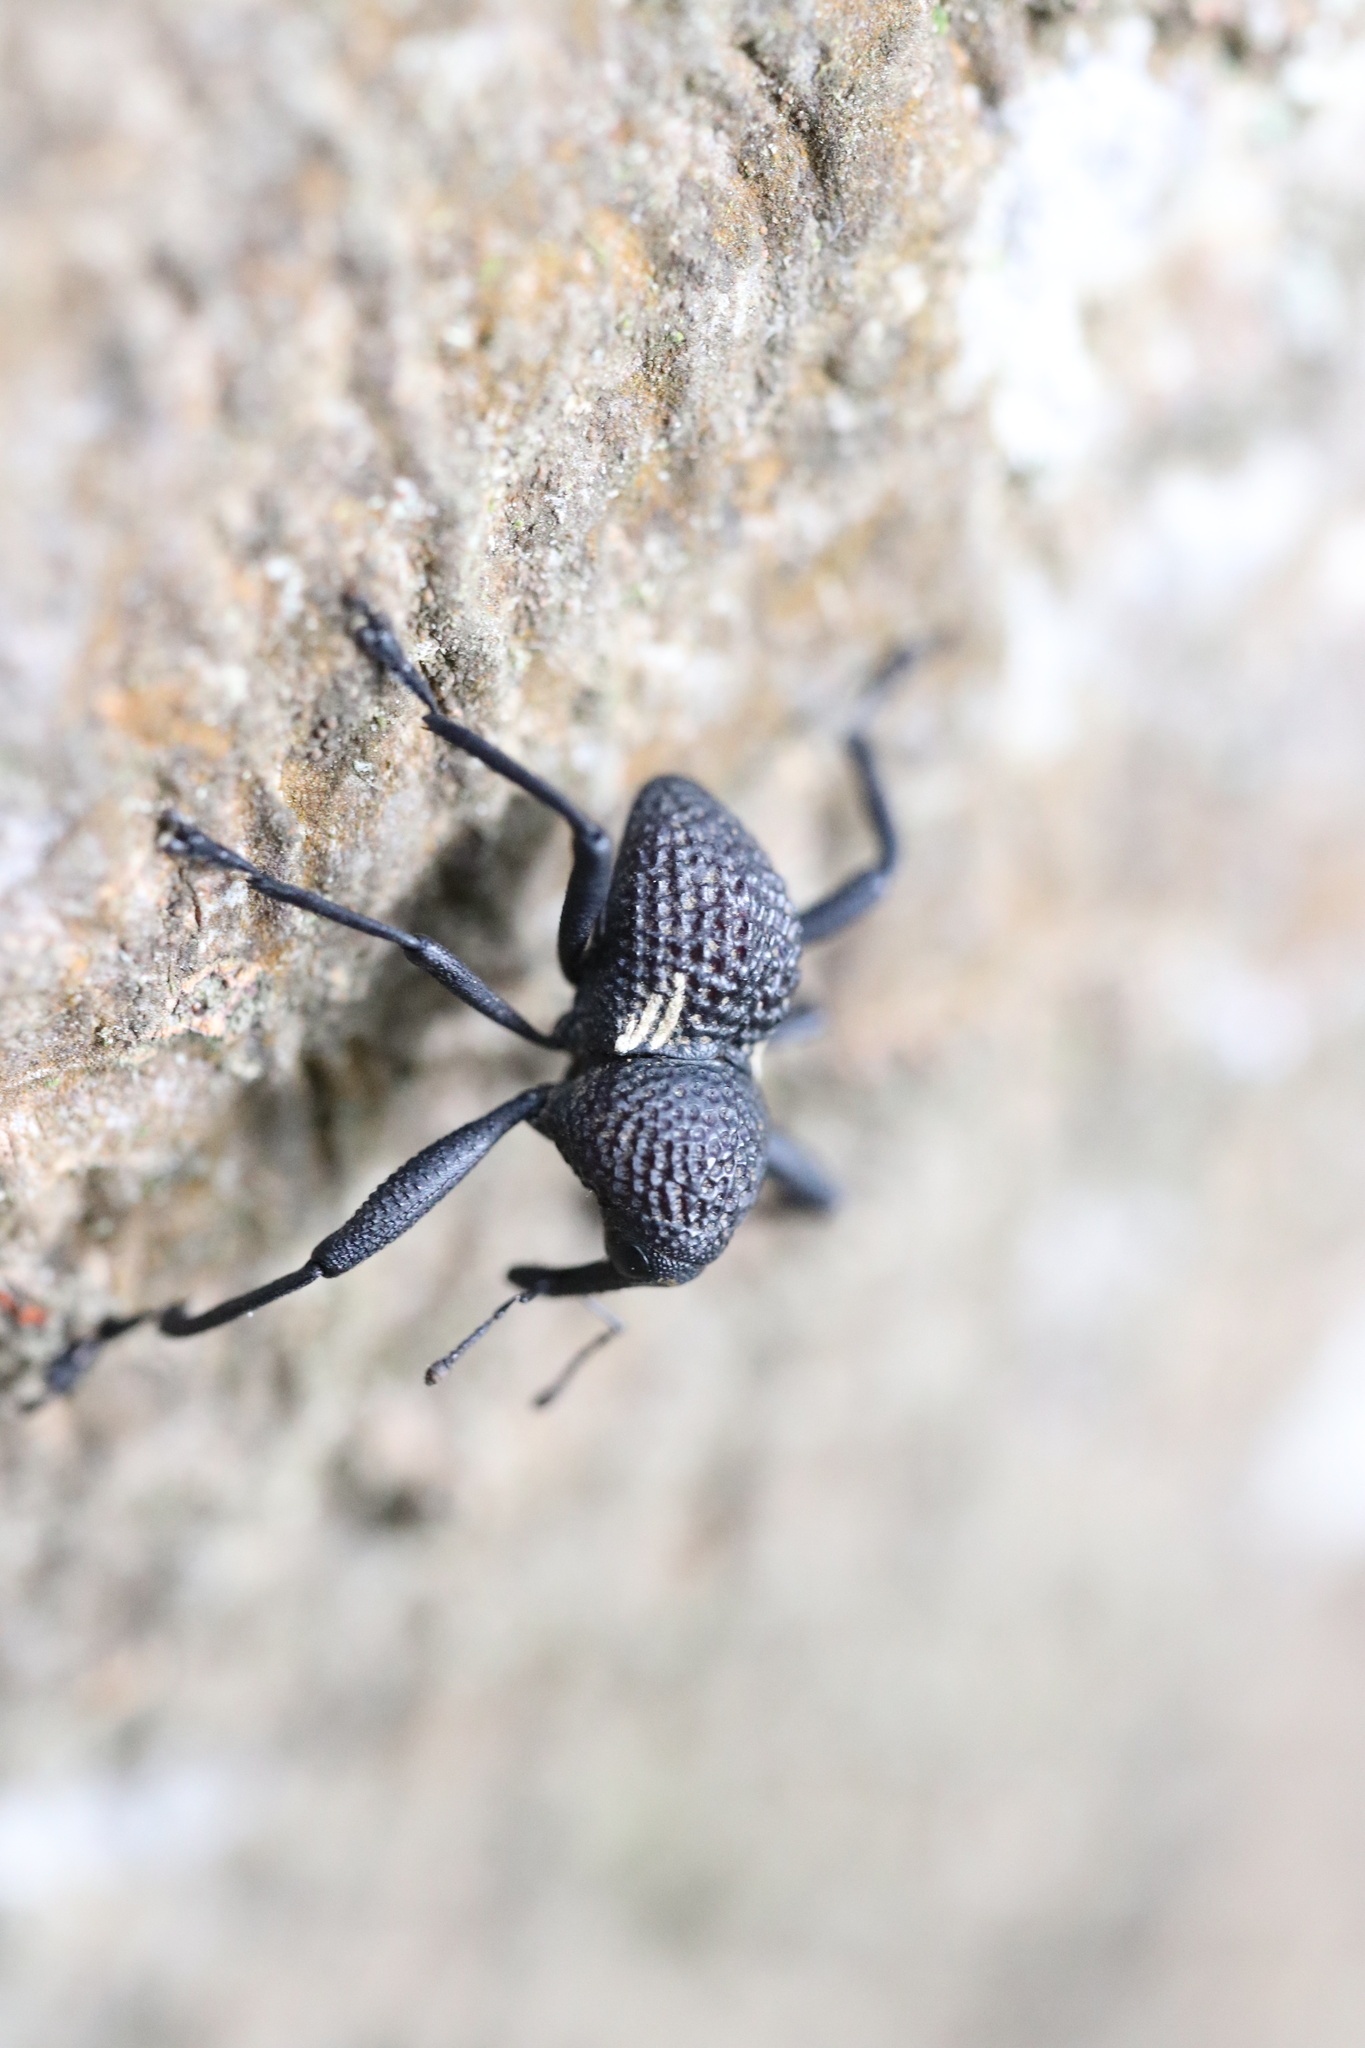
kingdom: Animalia
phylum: Arthropoda
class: Insecta
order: Coleoptera
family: Curculionidae
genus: Rhyephenes
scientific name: Rhyephenes humeralis
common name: Araè±ita chilena del pino
